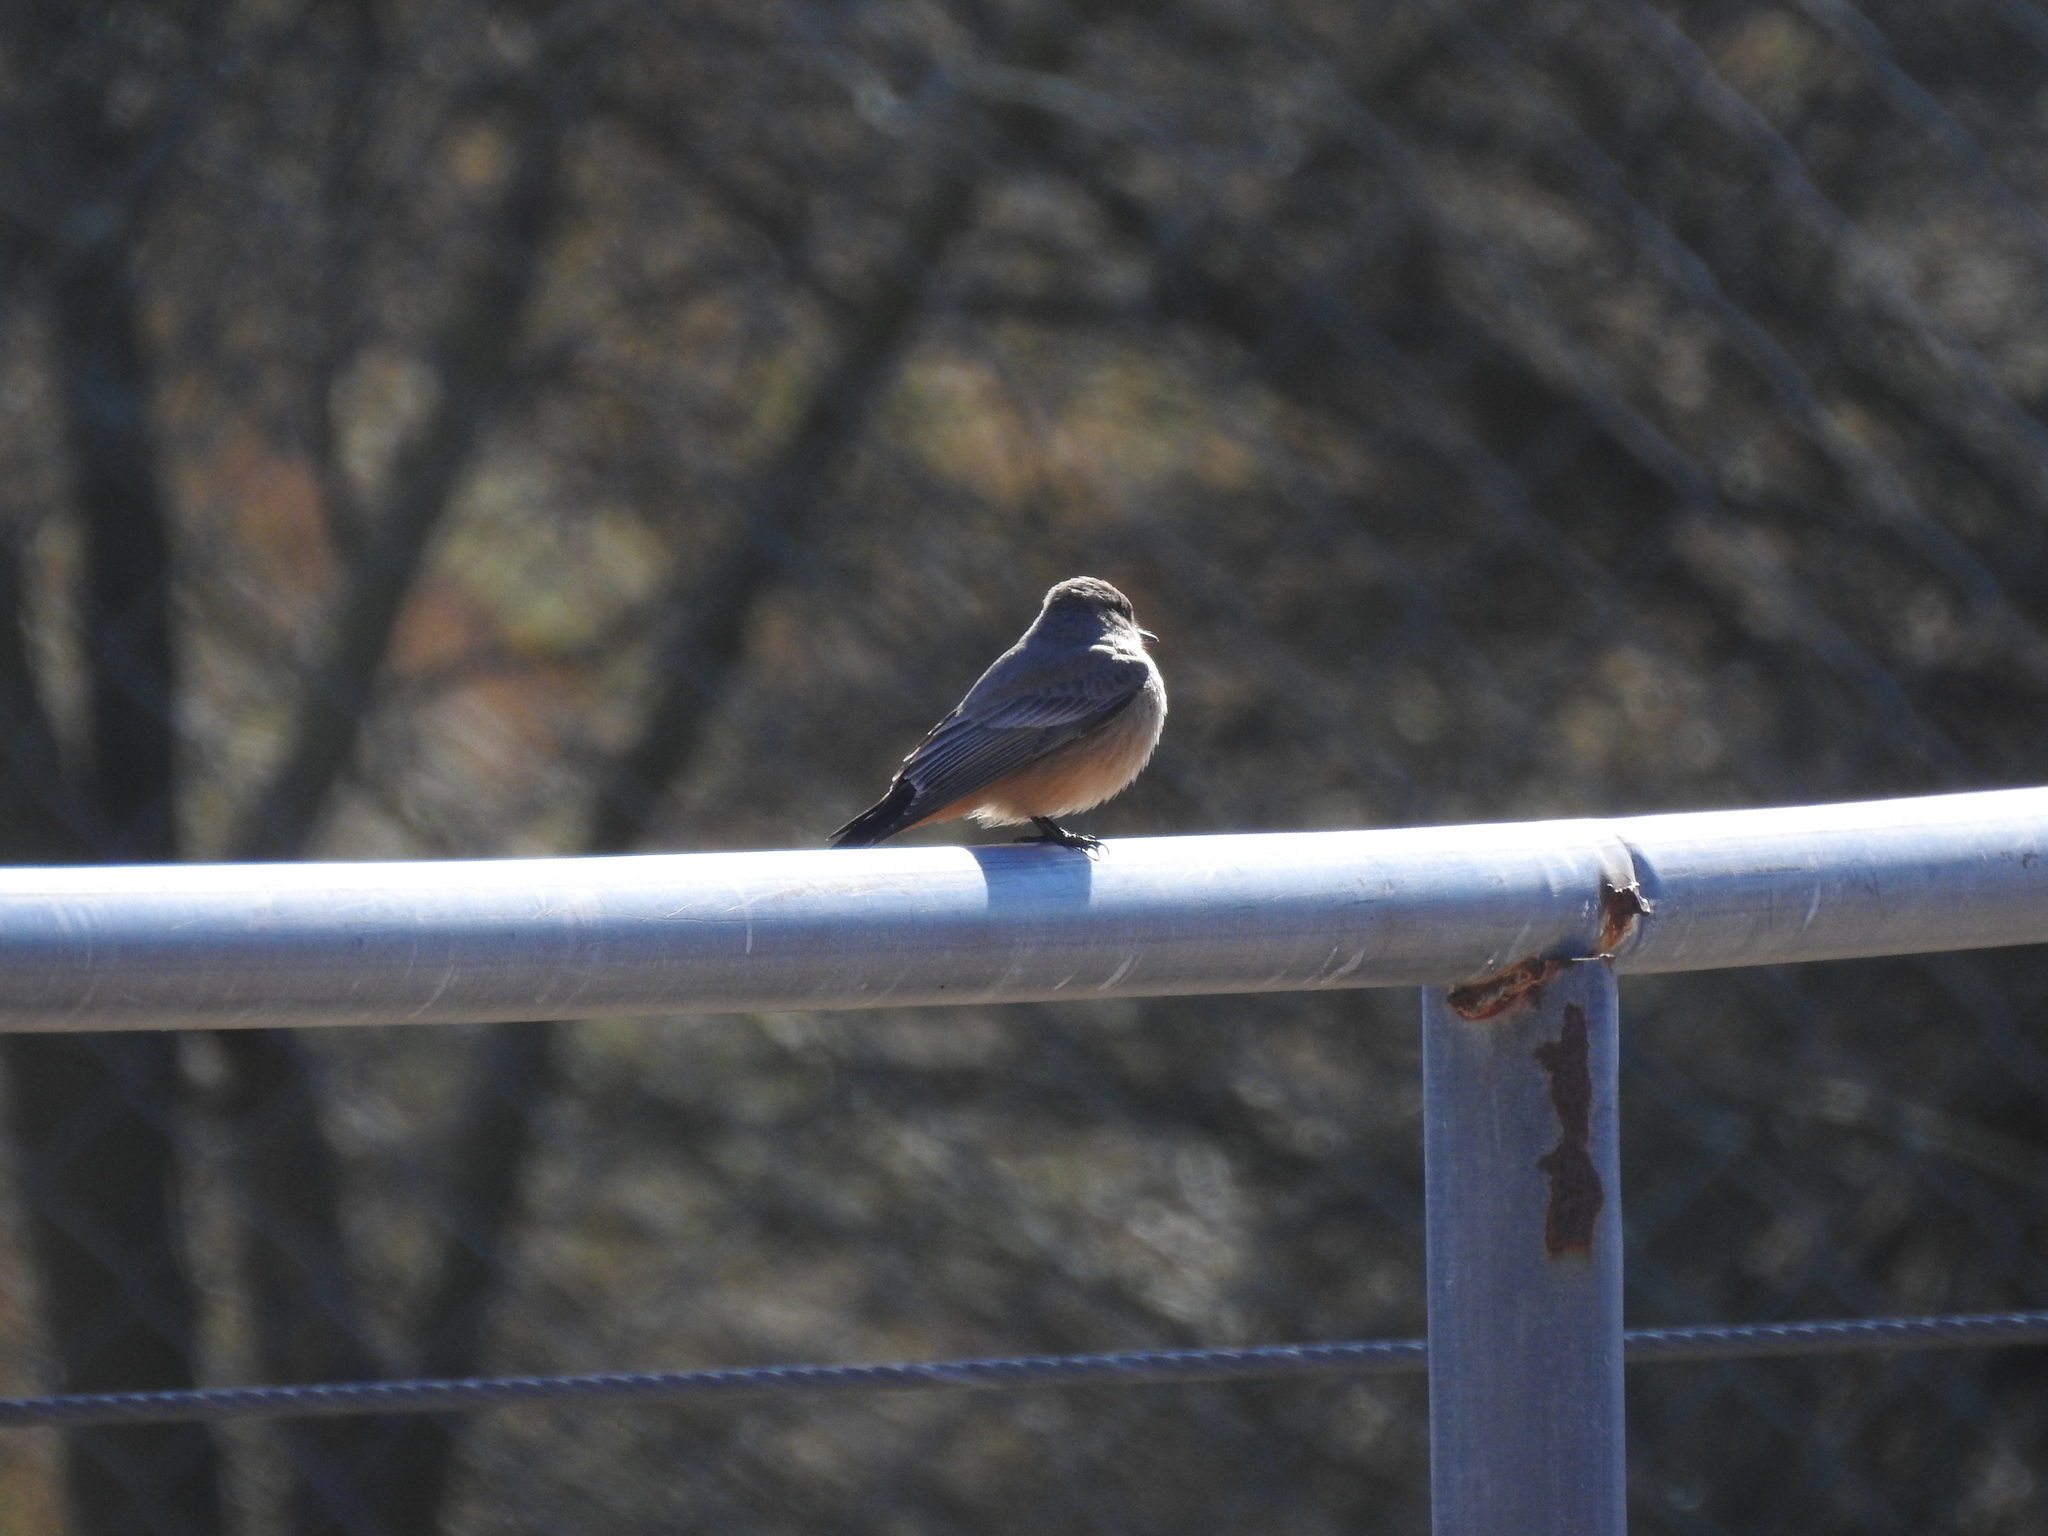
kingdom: Animalia
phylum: Chordata
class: Aves
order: Passeriformes
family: Tyrannidae
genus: Sayornis
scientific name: Sayornis saya
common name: Say's phoebe
